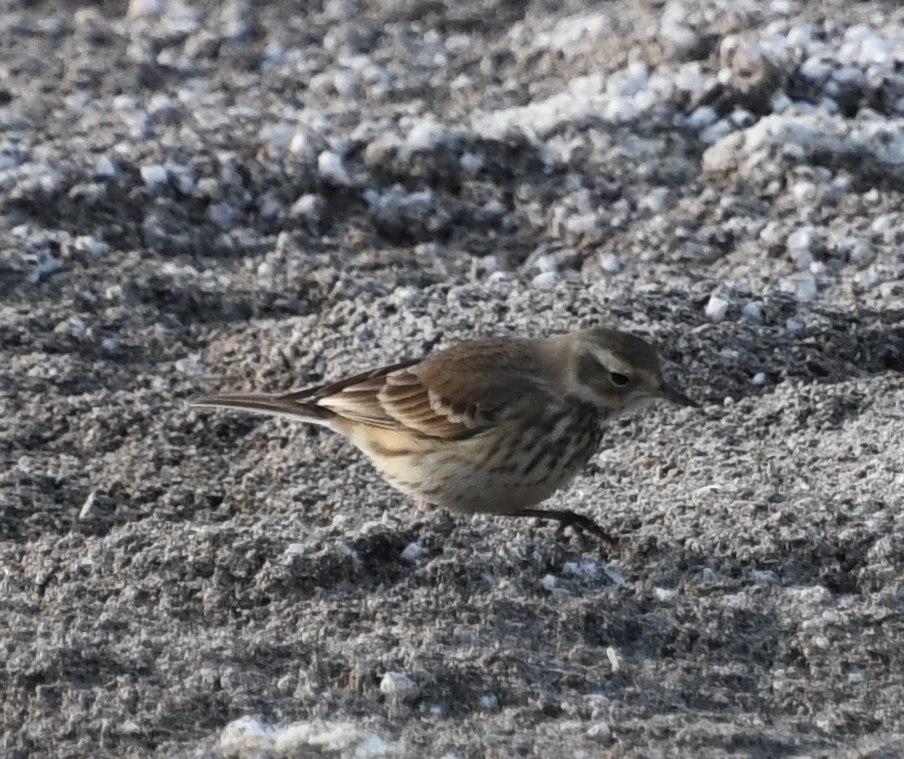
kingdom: Animalia
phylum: Chordata
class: Aves
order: Passeriformes
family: Motacillidae
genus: Anthus
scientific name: Anthus rubescens
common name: Buff-bellied pipit
